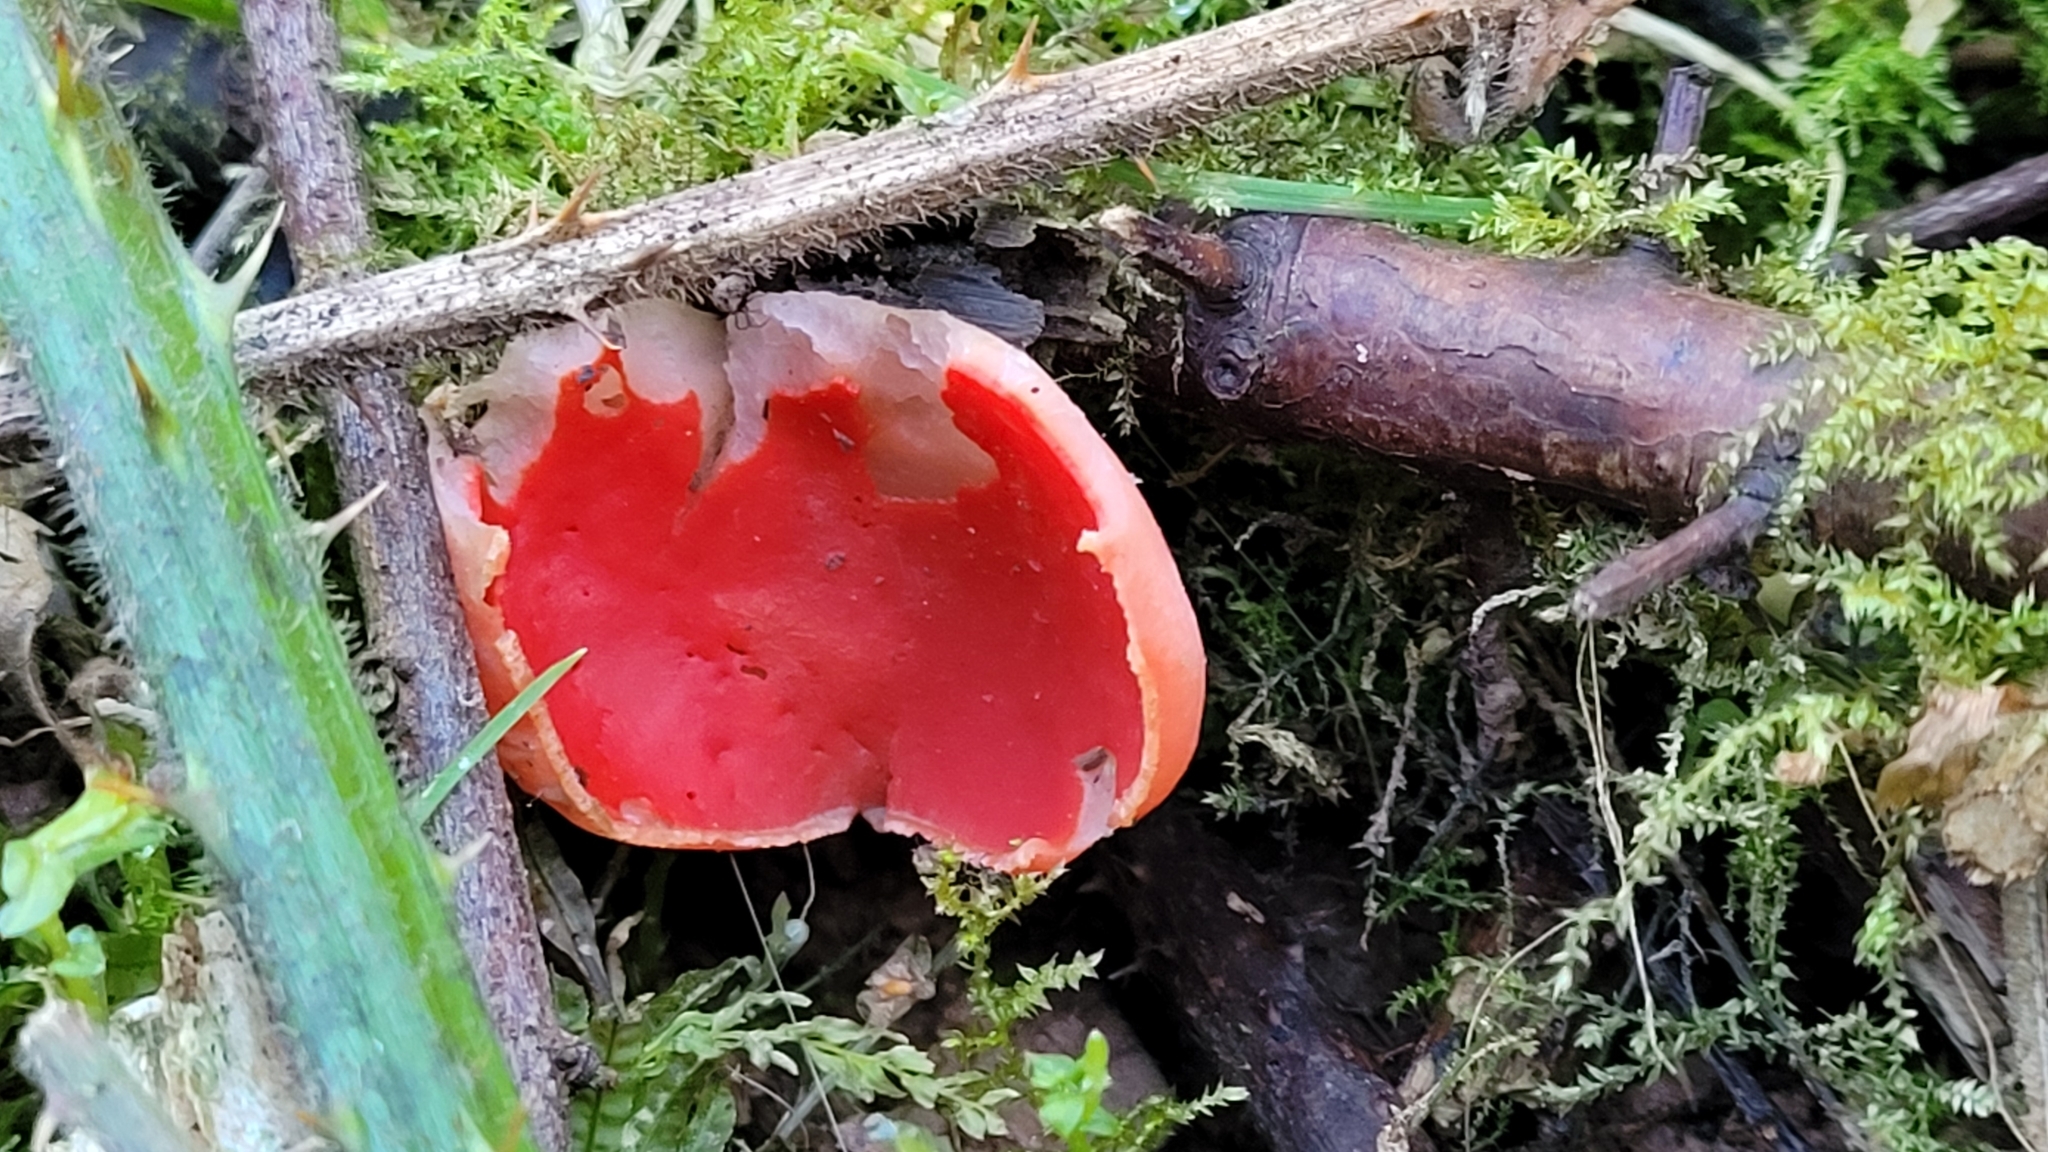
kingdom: Fungi
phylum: Ascomycota
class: Pezizomycetes
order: Pezizales
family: Sarcoscyphaceae
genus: Sarcoscypha
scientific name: Sarcoscypha
